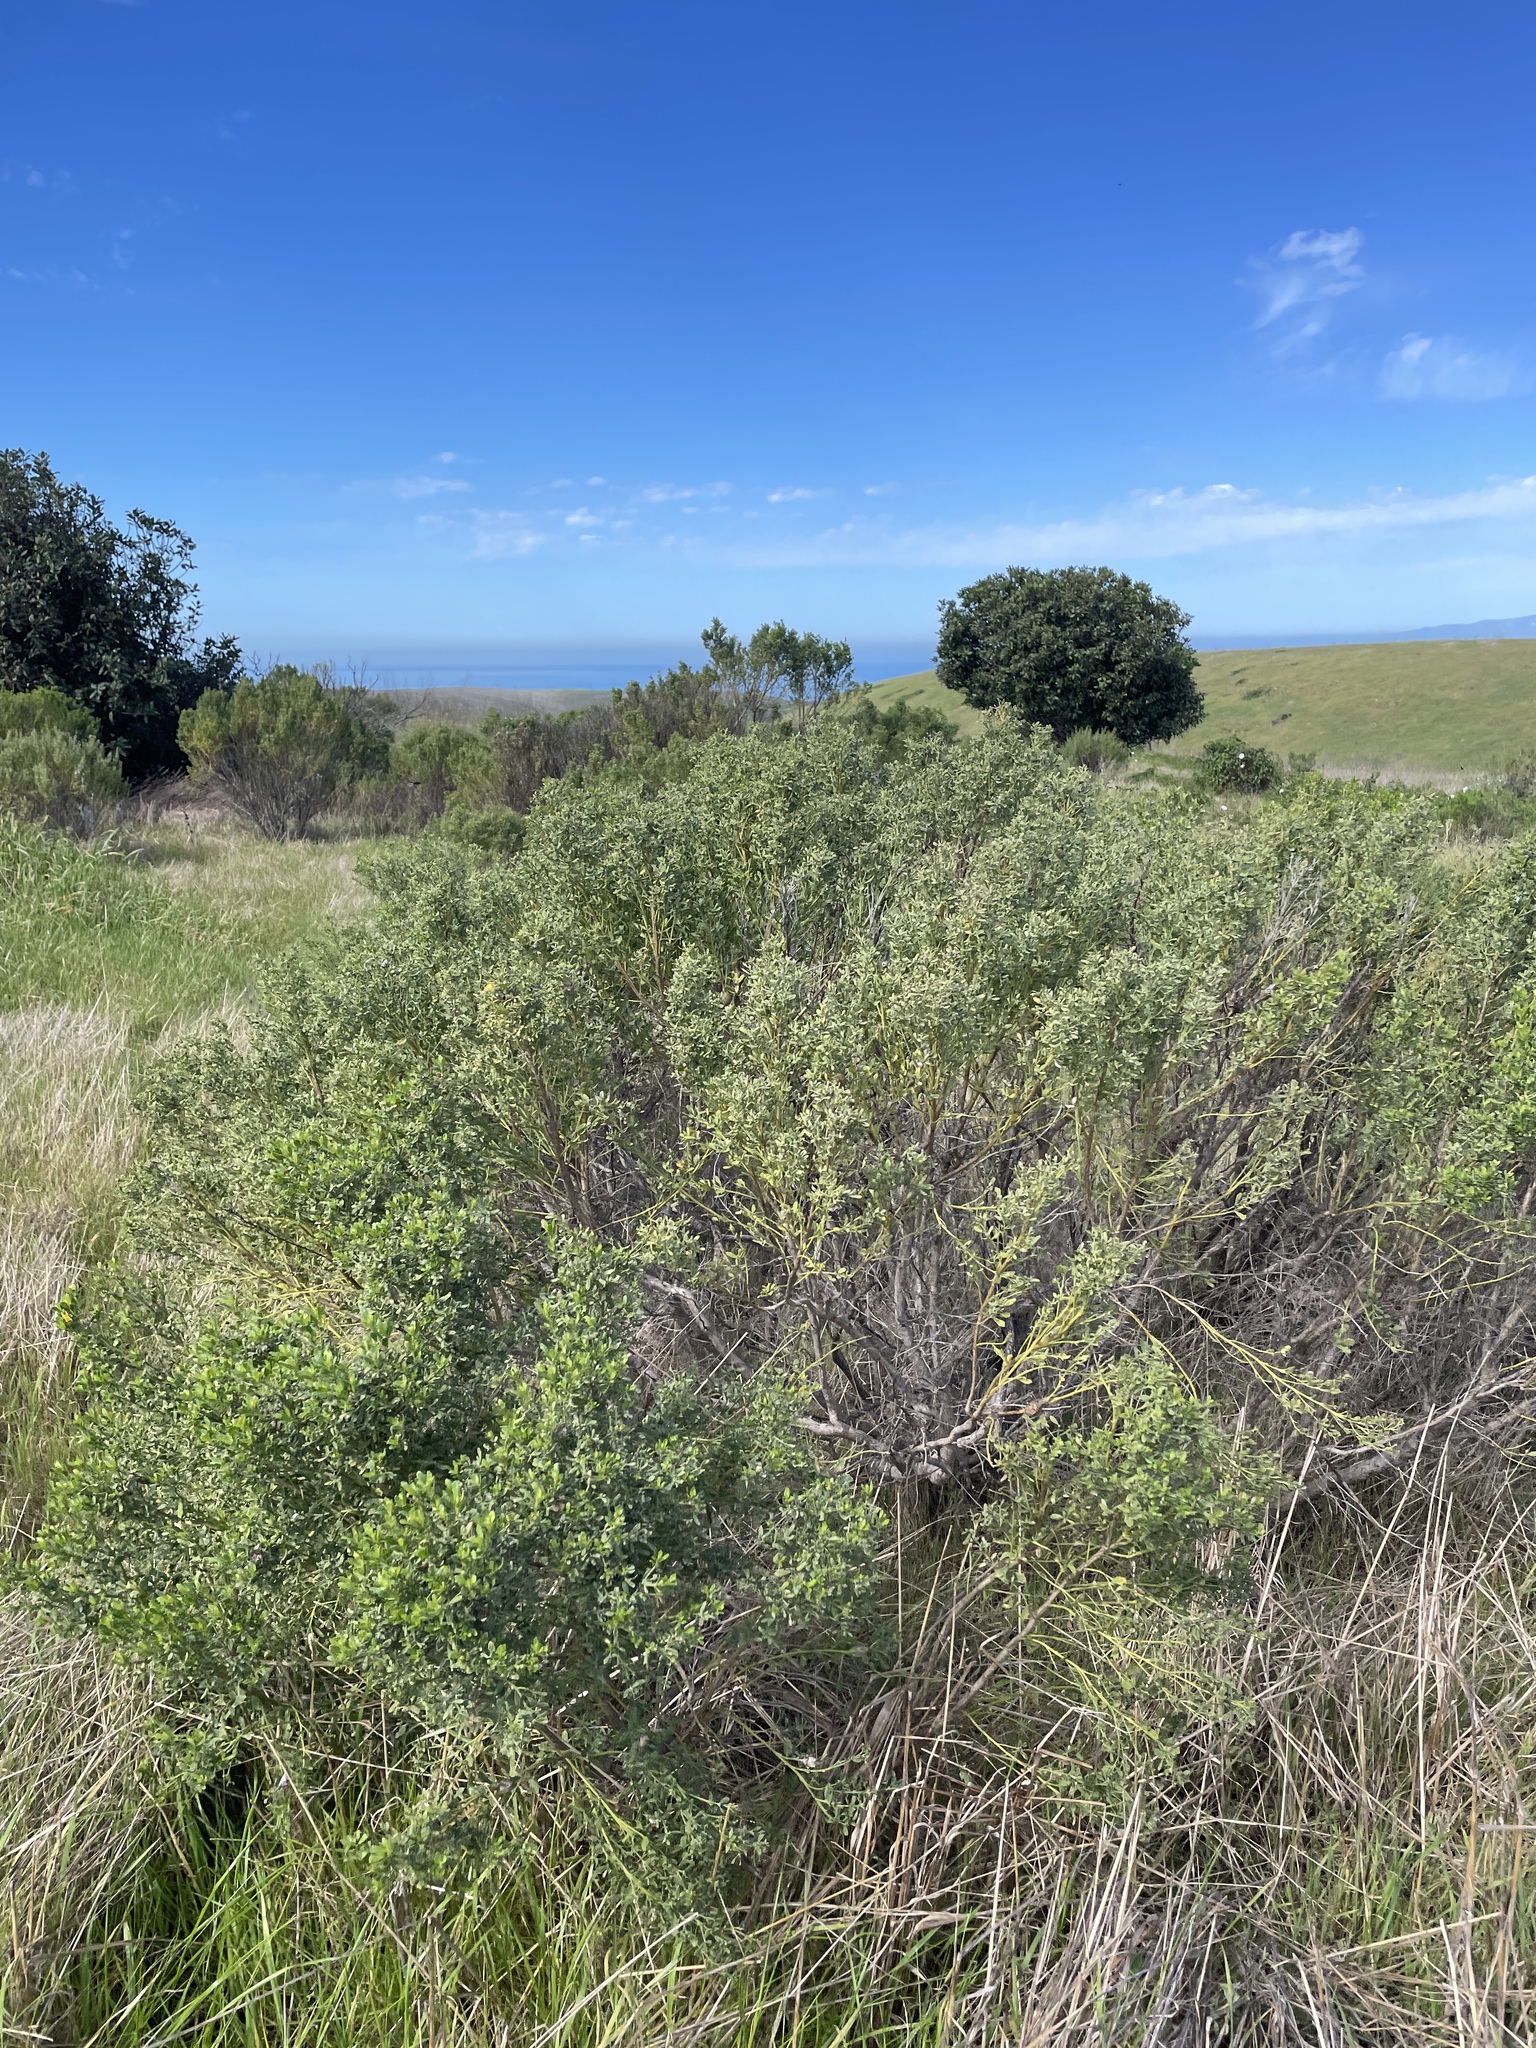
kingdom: Plantae
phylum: Tracheophyta
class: Magnoliopsida
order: Asterales
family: Asteraceae
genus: Baccharis
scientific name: Baccharis pilularis
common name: Coyotebrush
